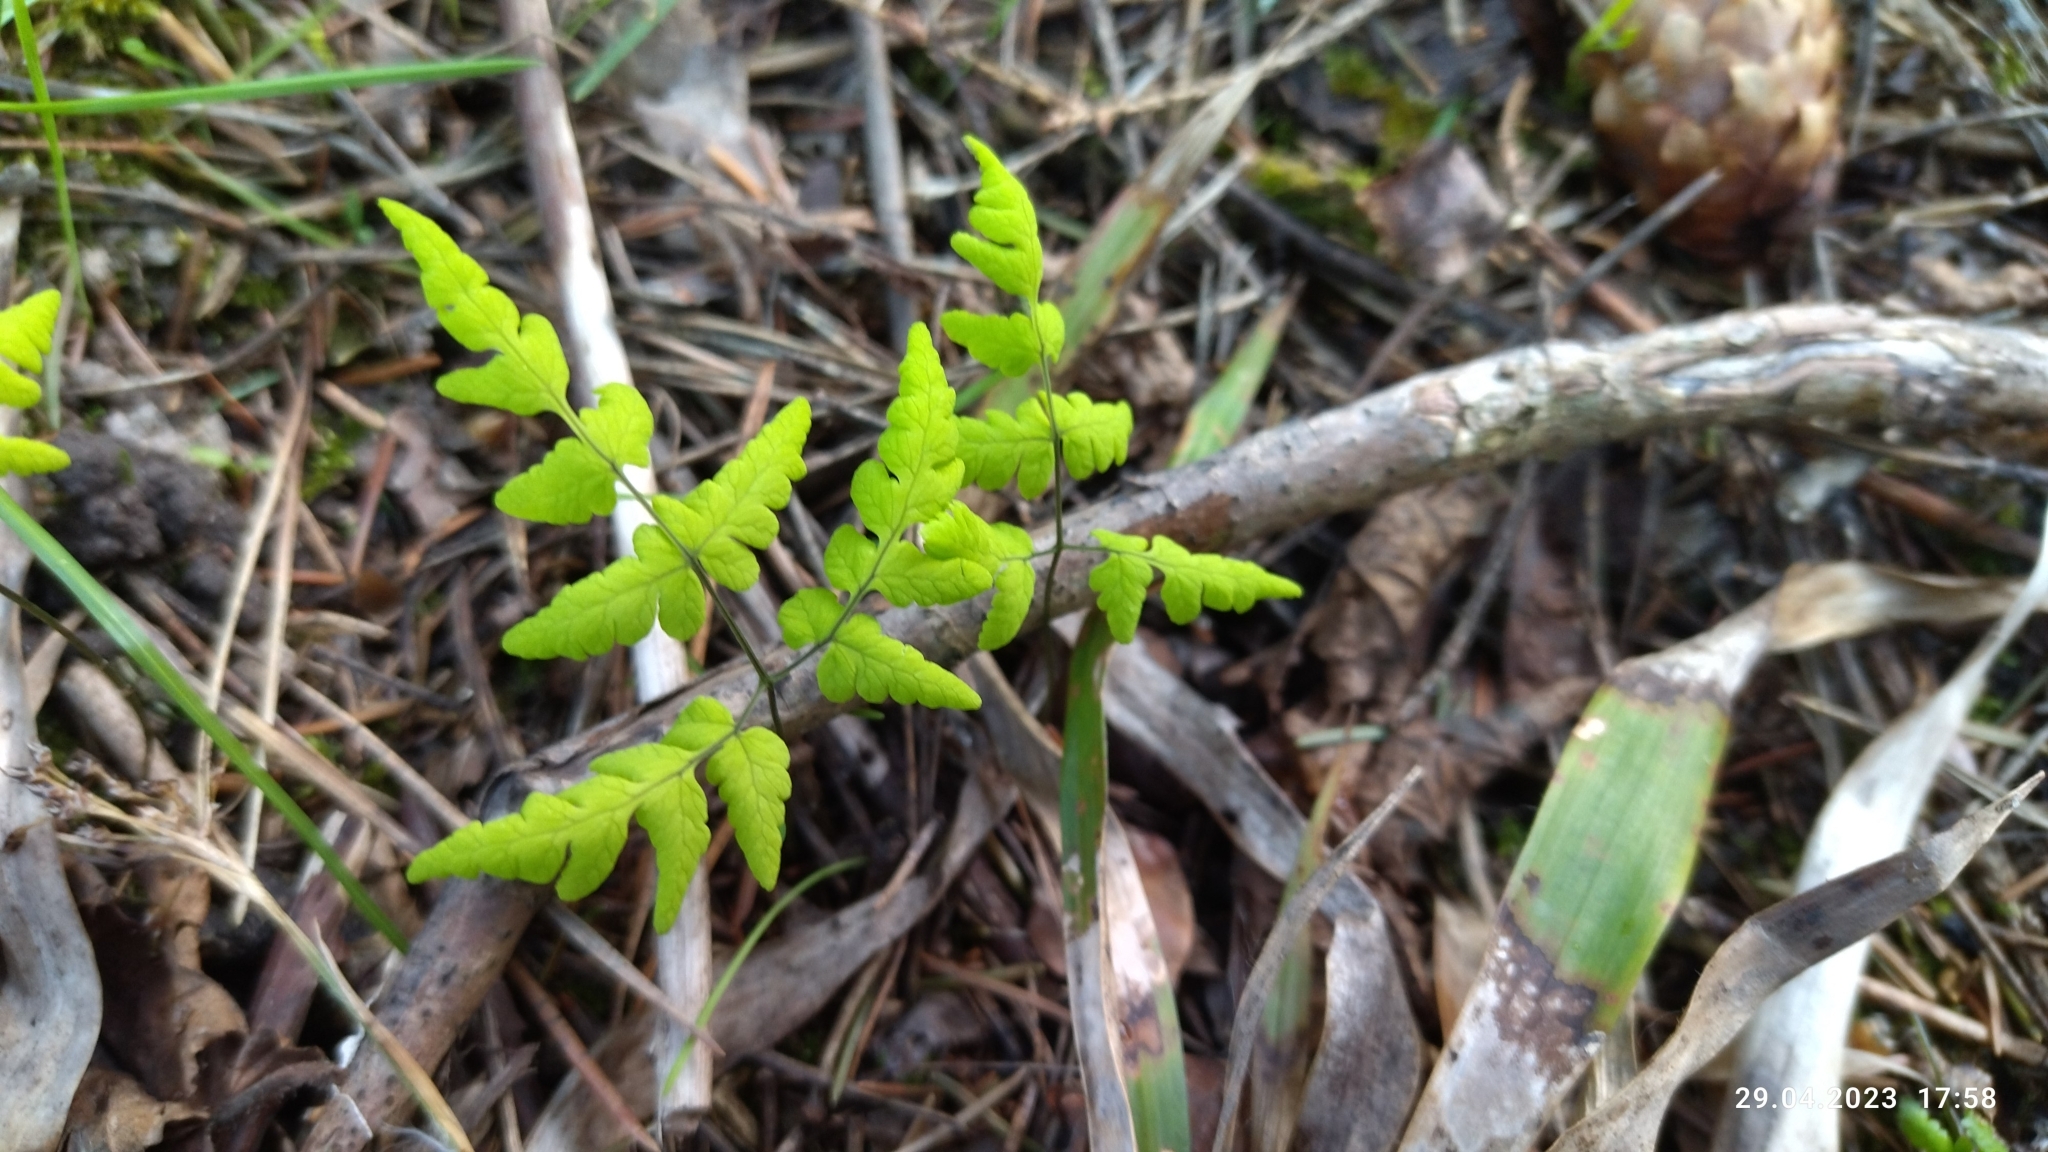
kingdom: Plantae
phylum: Tracheophyta
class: Polypodiopsida
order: Polypodiales
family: Cystopteridaceae
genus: Gymnocarpium
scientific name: Gymnocarpium dryopteris
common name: Oak fern
